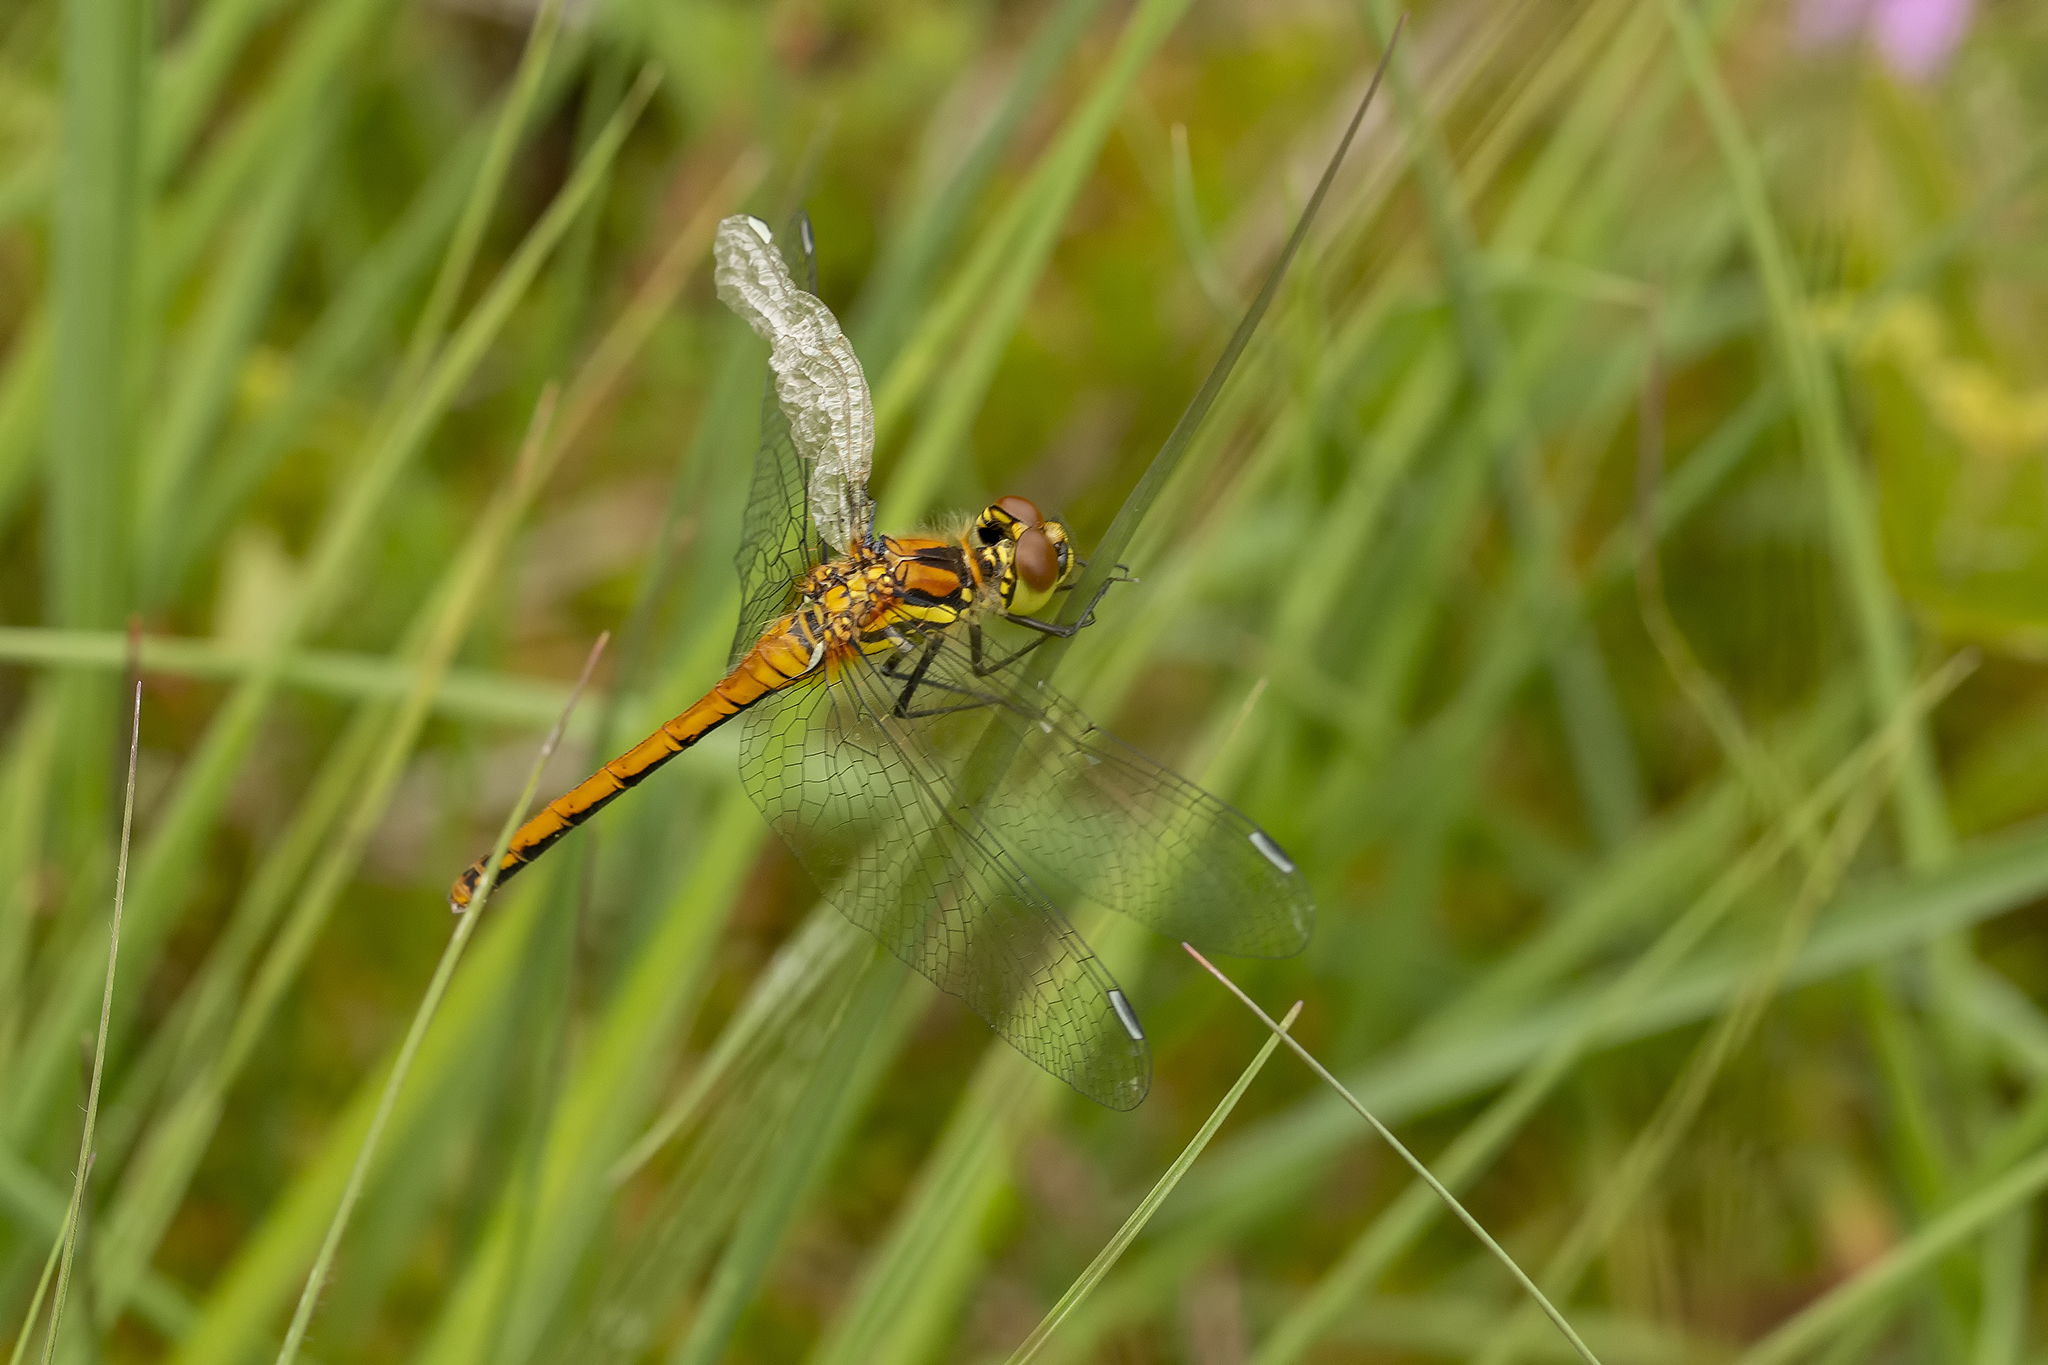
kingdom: Animalia
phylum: Arthropoda
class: Insecta
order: Odonata
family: Libellulidae
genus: Sympetrum
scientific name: Sympetrum danae
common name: Black darter
